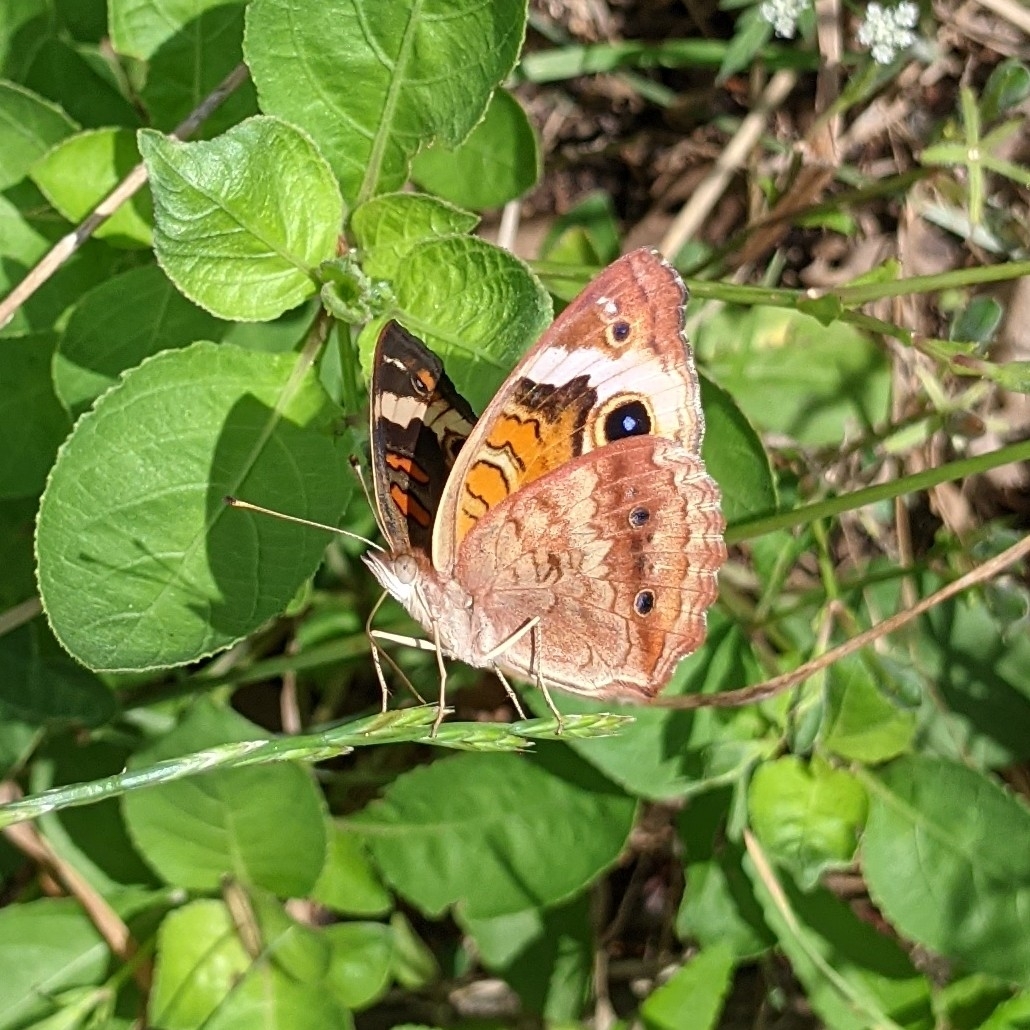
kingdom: Animalia
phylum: Arthropoda
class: Insecta
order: Lepidoptera
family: Nymphalidae
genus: Junonia
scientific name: Junonia coenia
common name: Common buckeye
